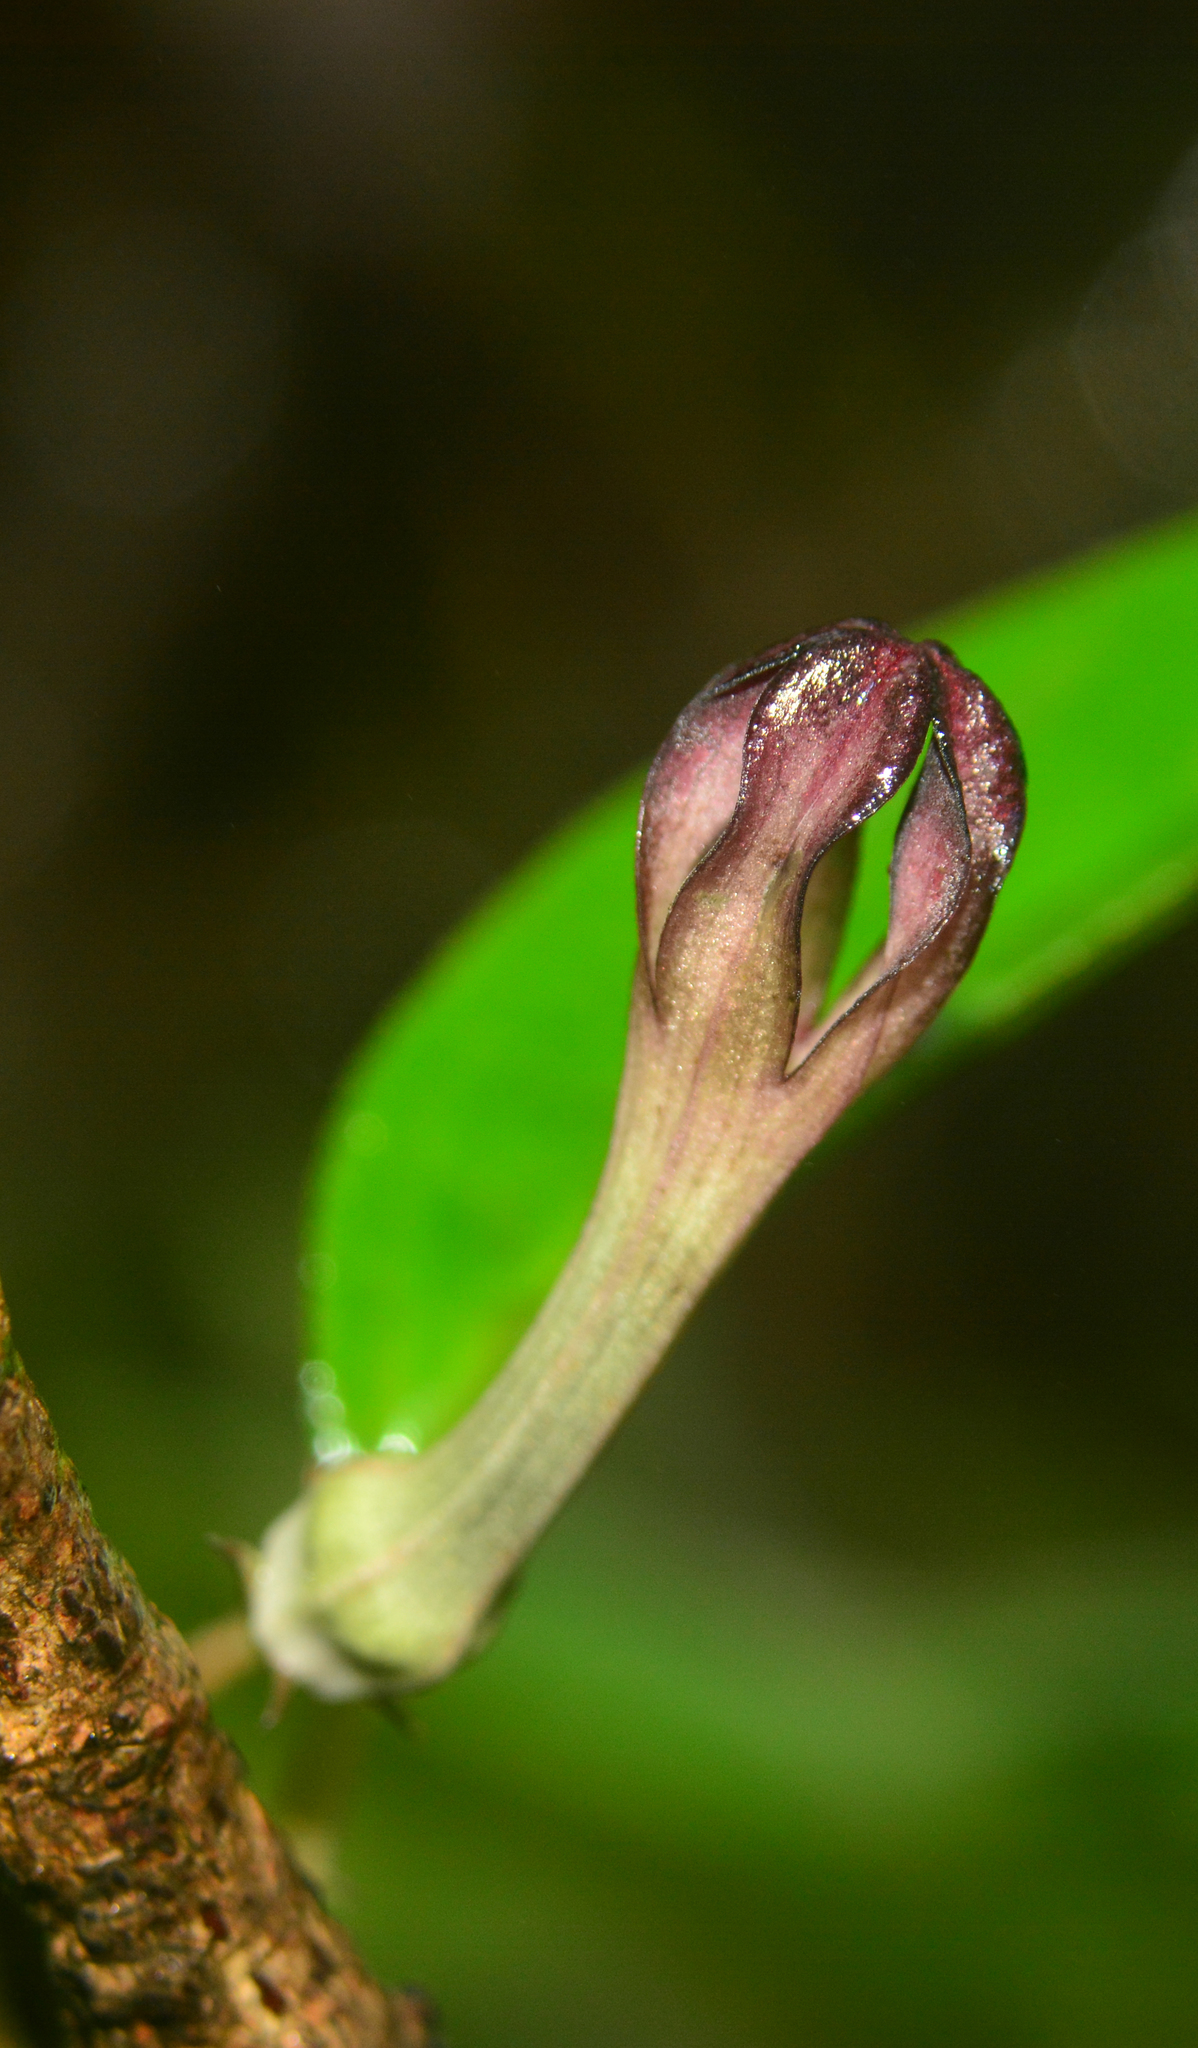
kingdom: Plantae
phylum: Tracheophyta
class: Magnoliopsida
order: Gentianales
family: Apocynaceae
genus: Ceropegia
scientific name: Ceropegia media
